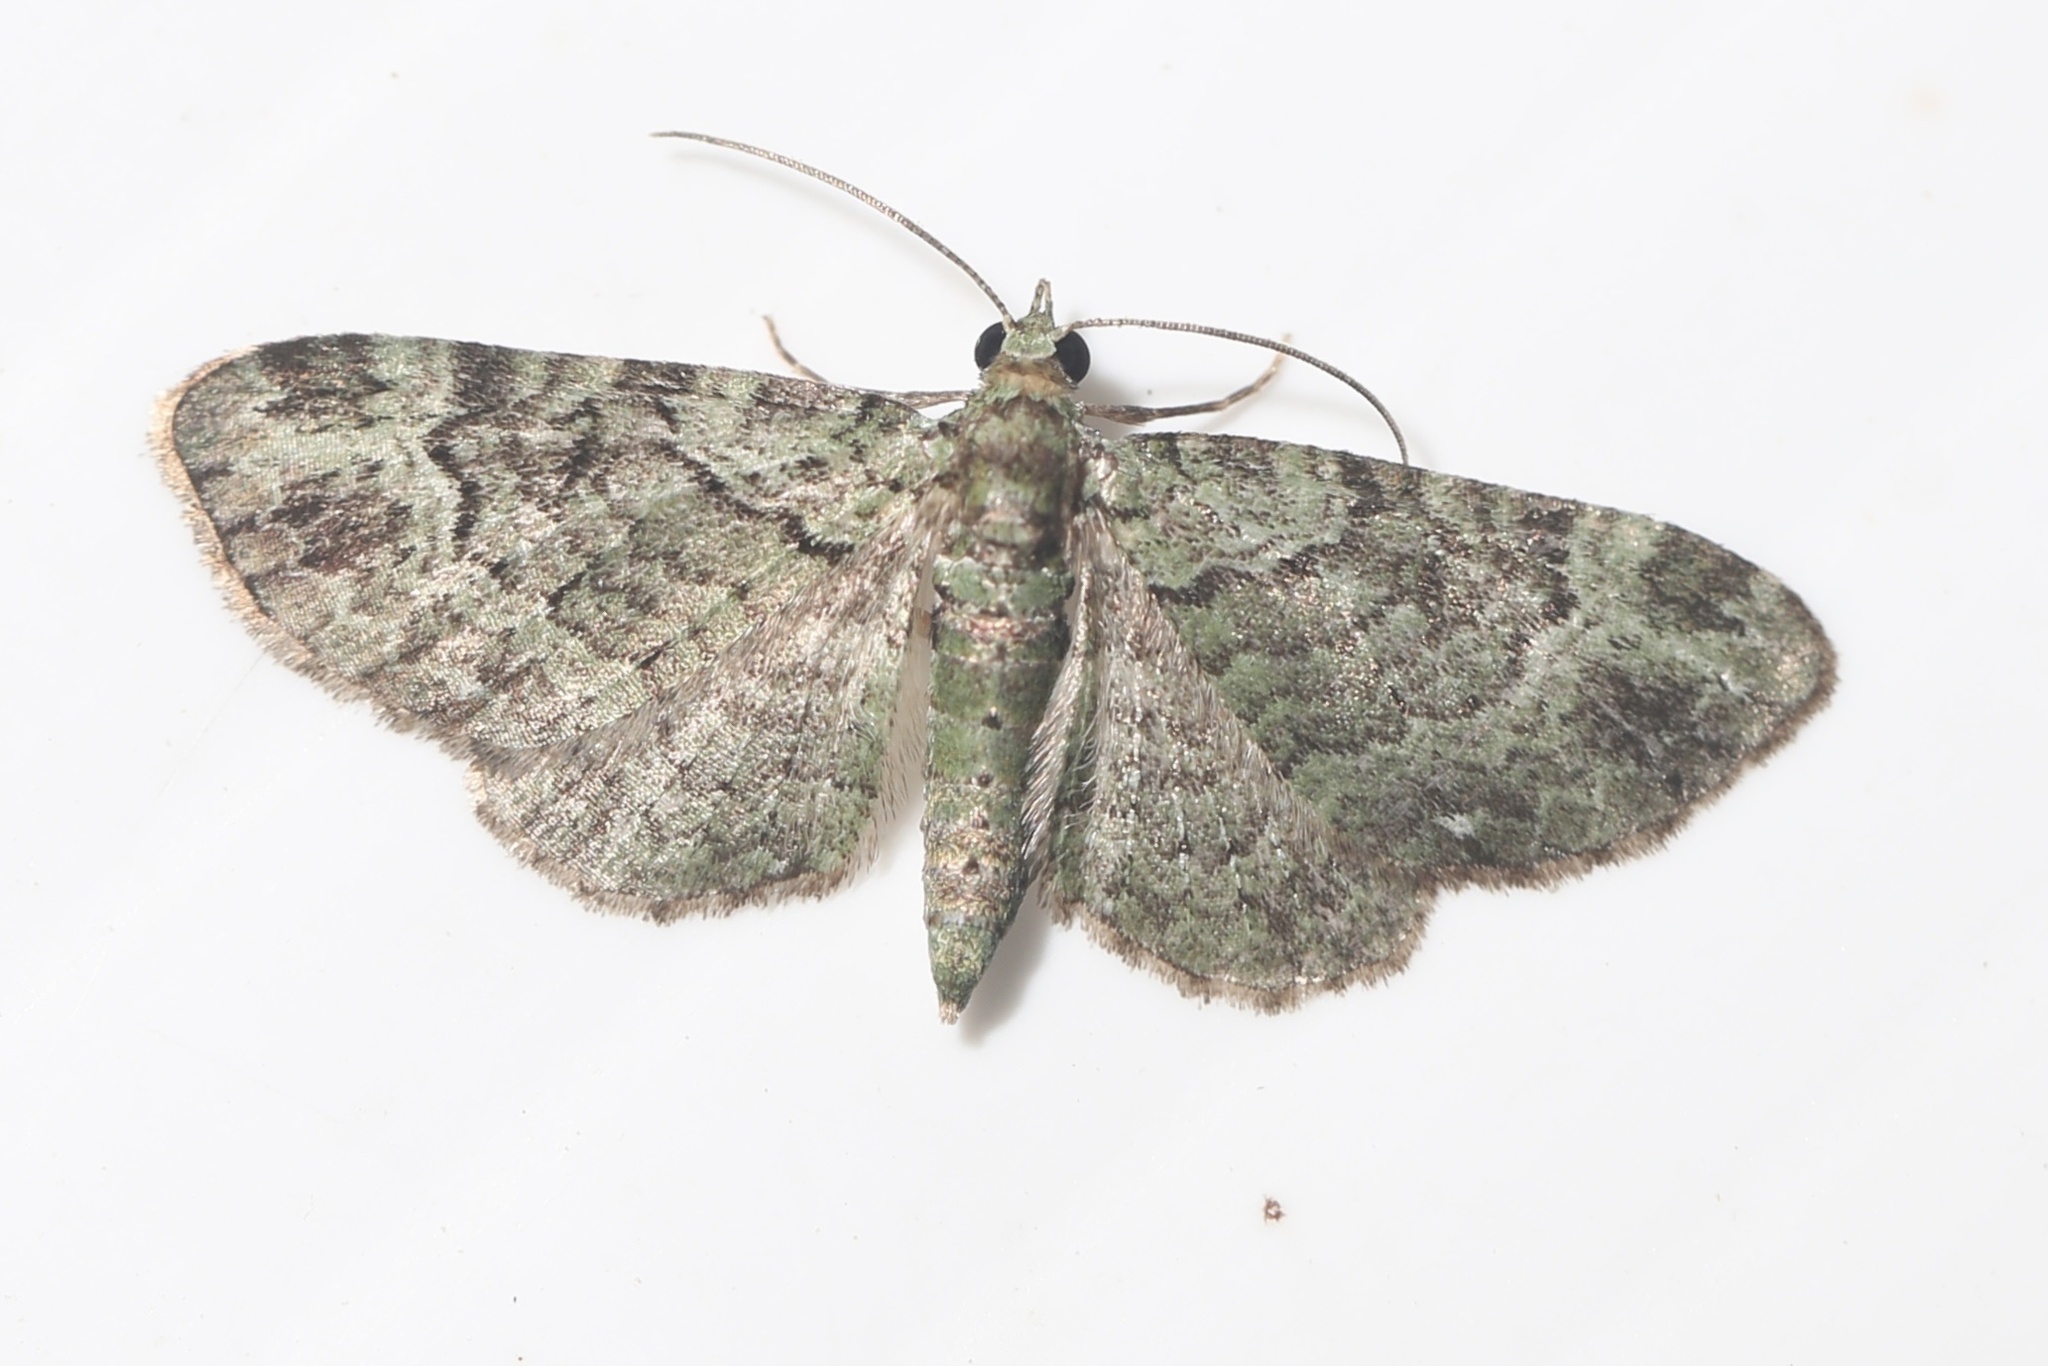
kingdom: Animalia
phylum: Arthropoda
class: Insecta
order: Lepidoptera
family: Geometridae
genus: Pasiphila
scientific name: Pasiphila rectangulata
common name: Green pug
